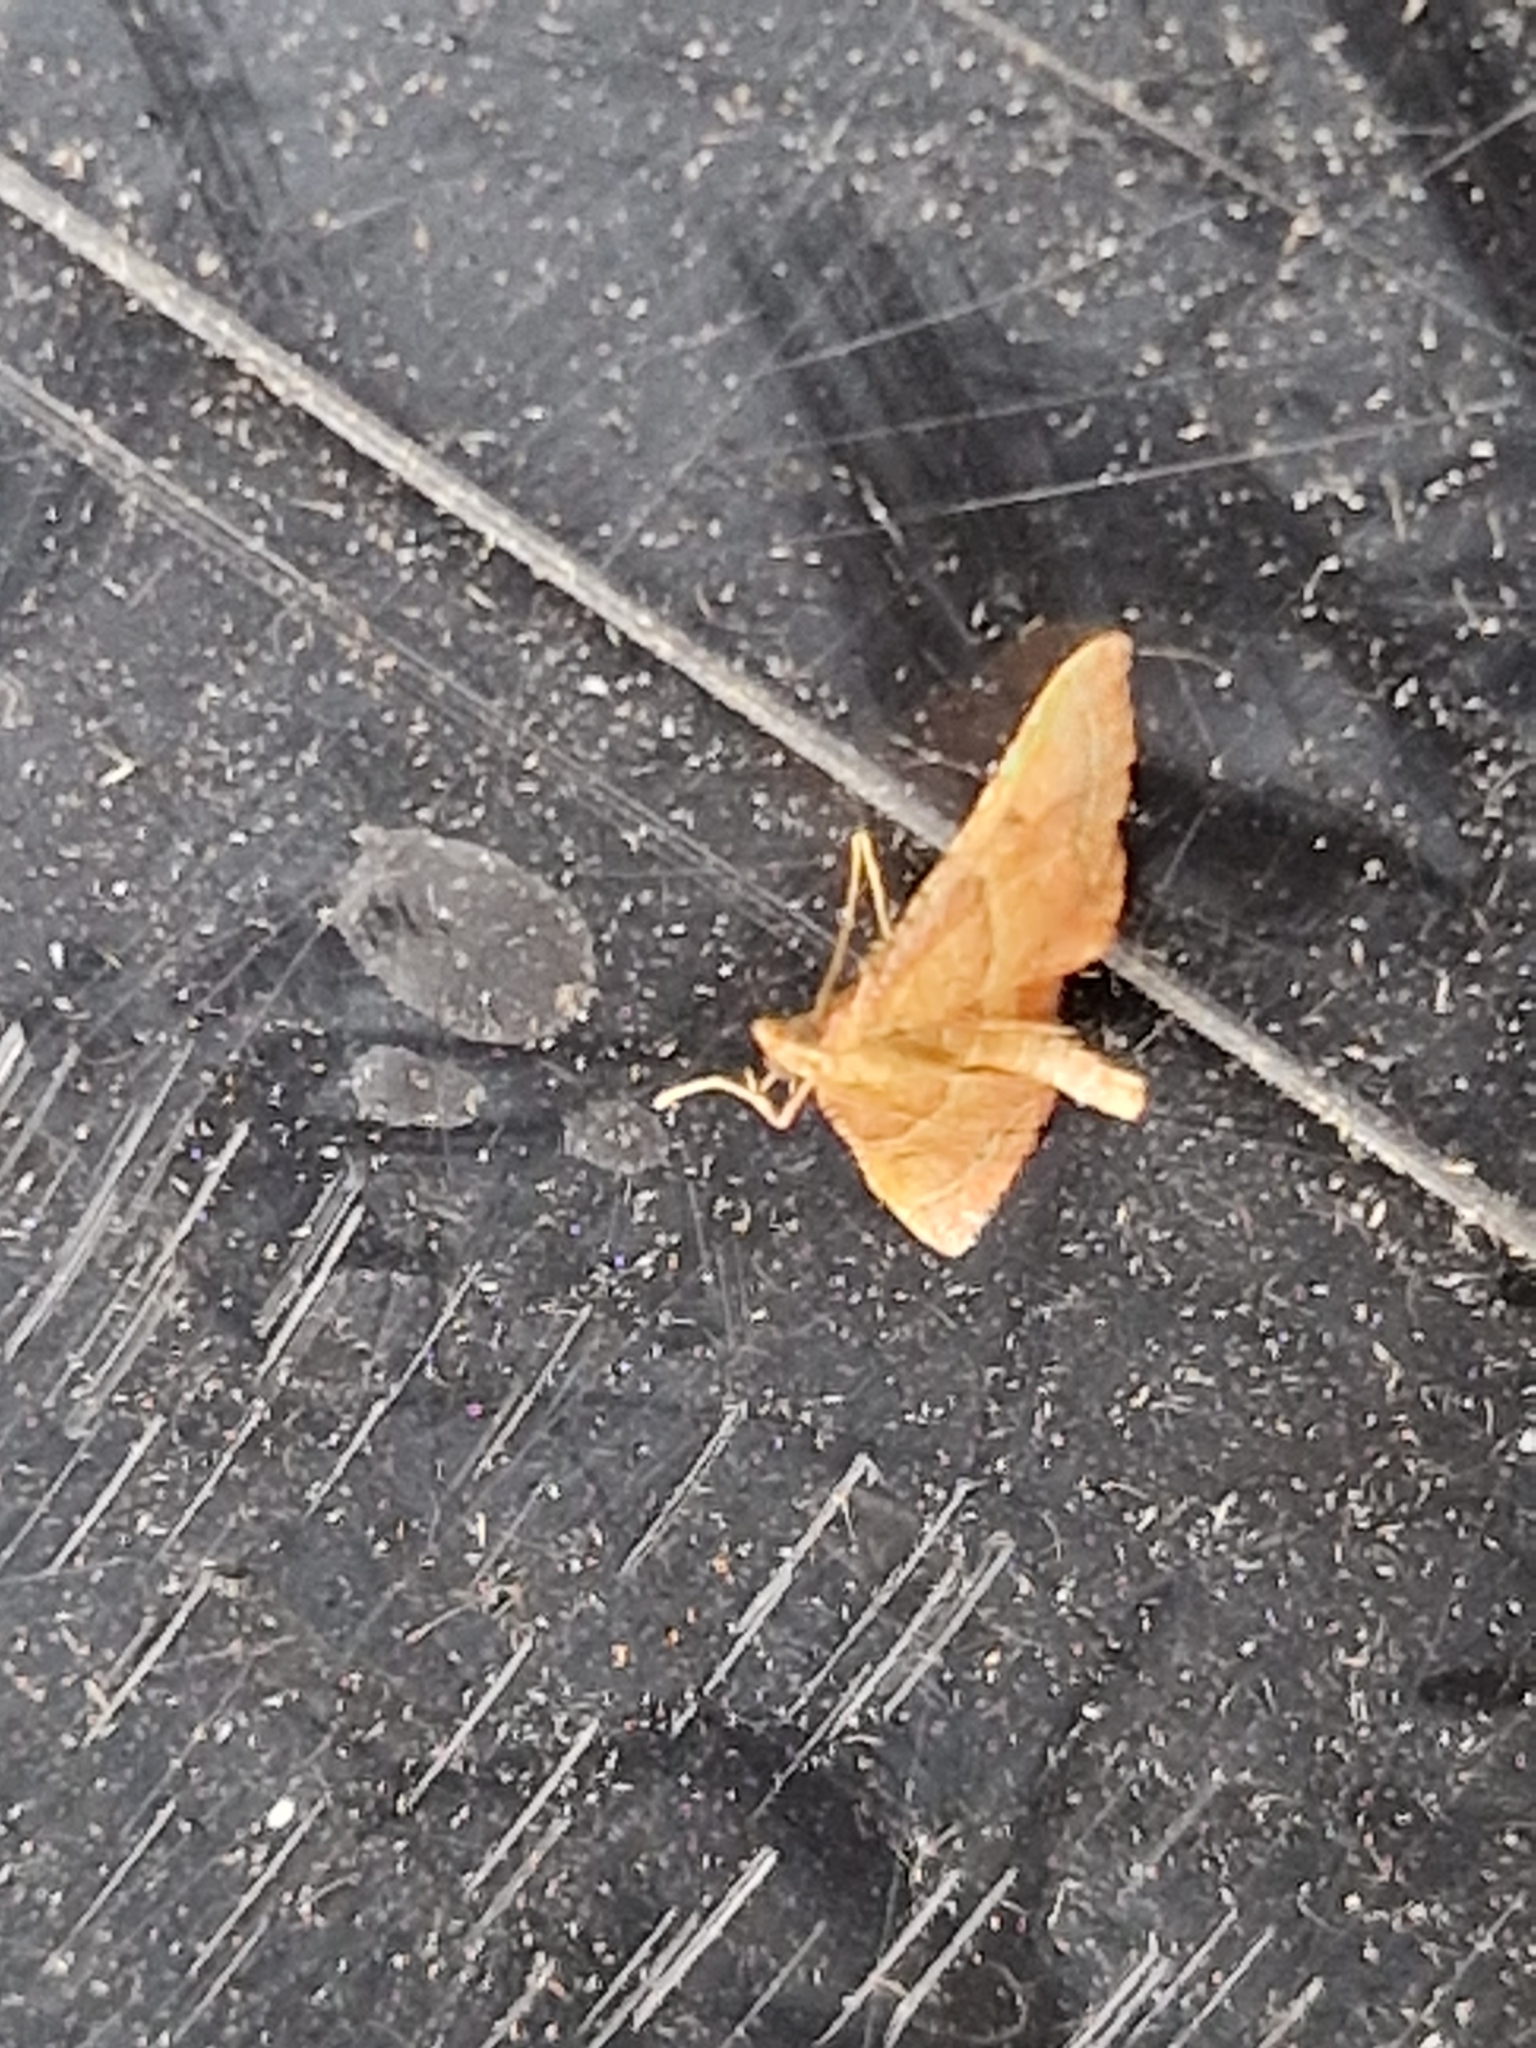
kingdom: Animalia
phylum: Arthropoda
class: Insecta
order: Lepidoptera
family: Pyralidae
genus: Endotricha
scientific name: Endotricha flammealis
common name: Rosy tabby
